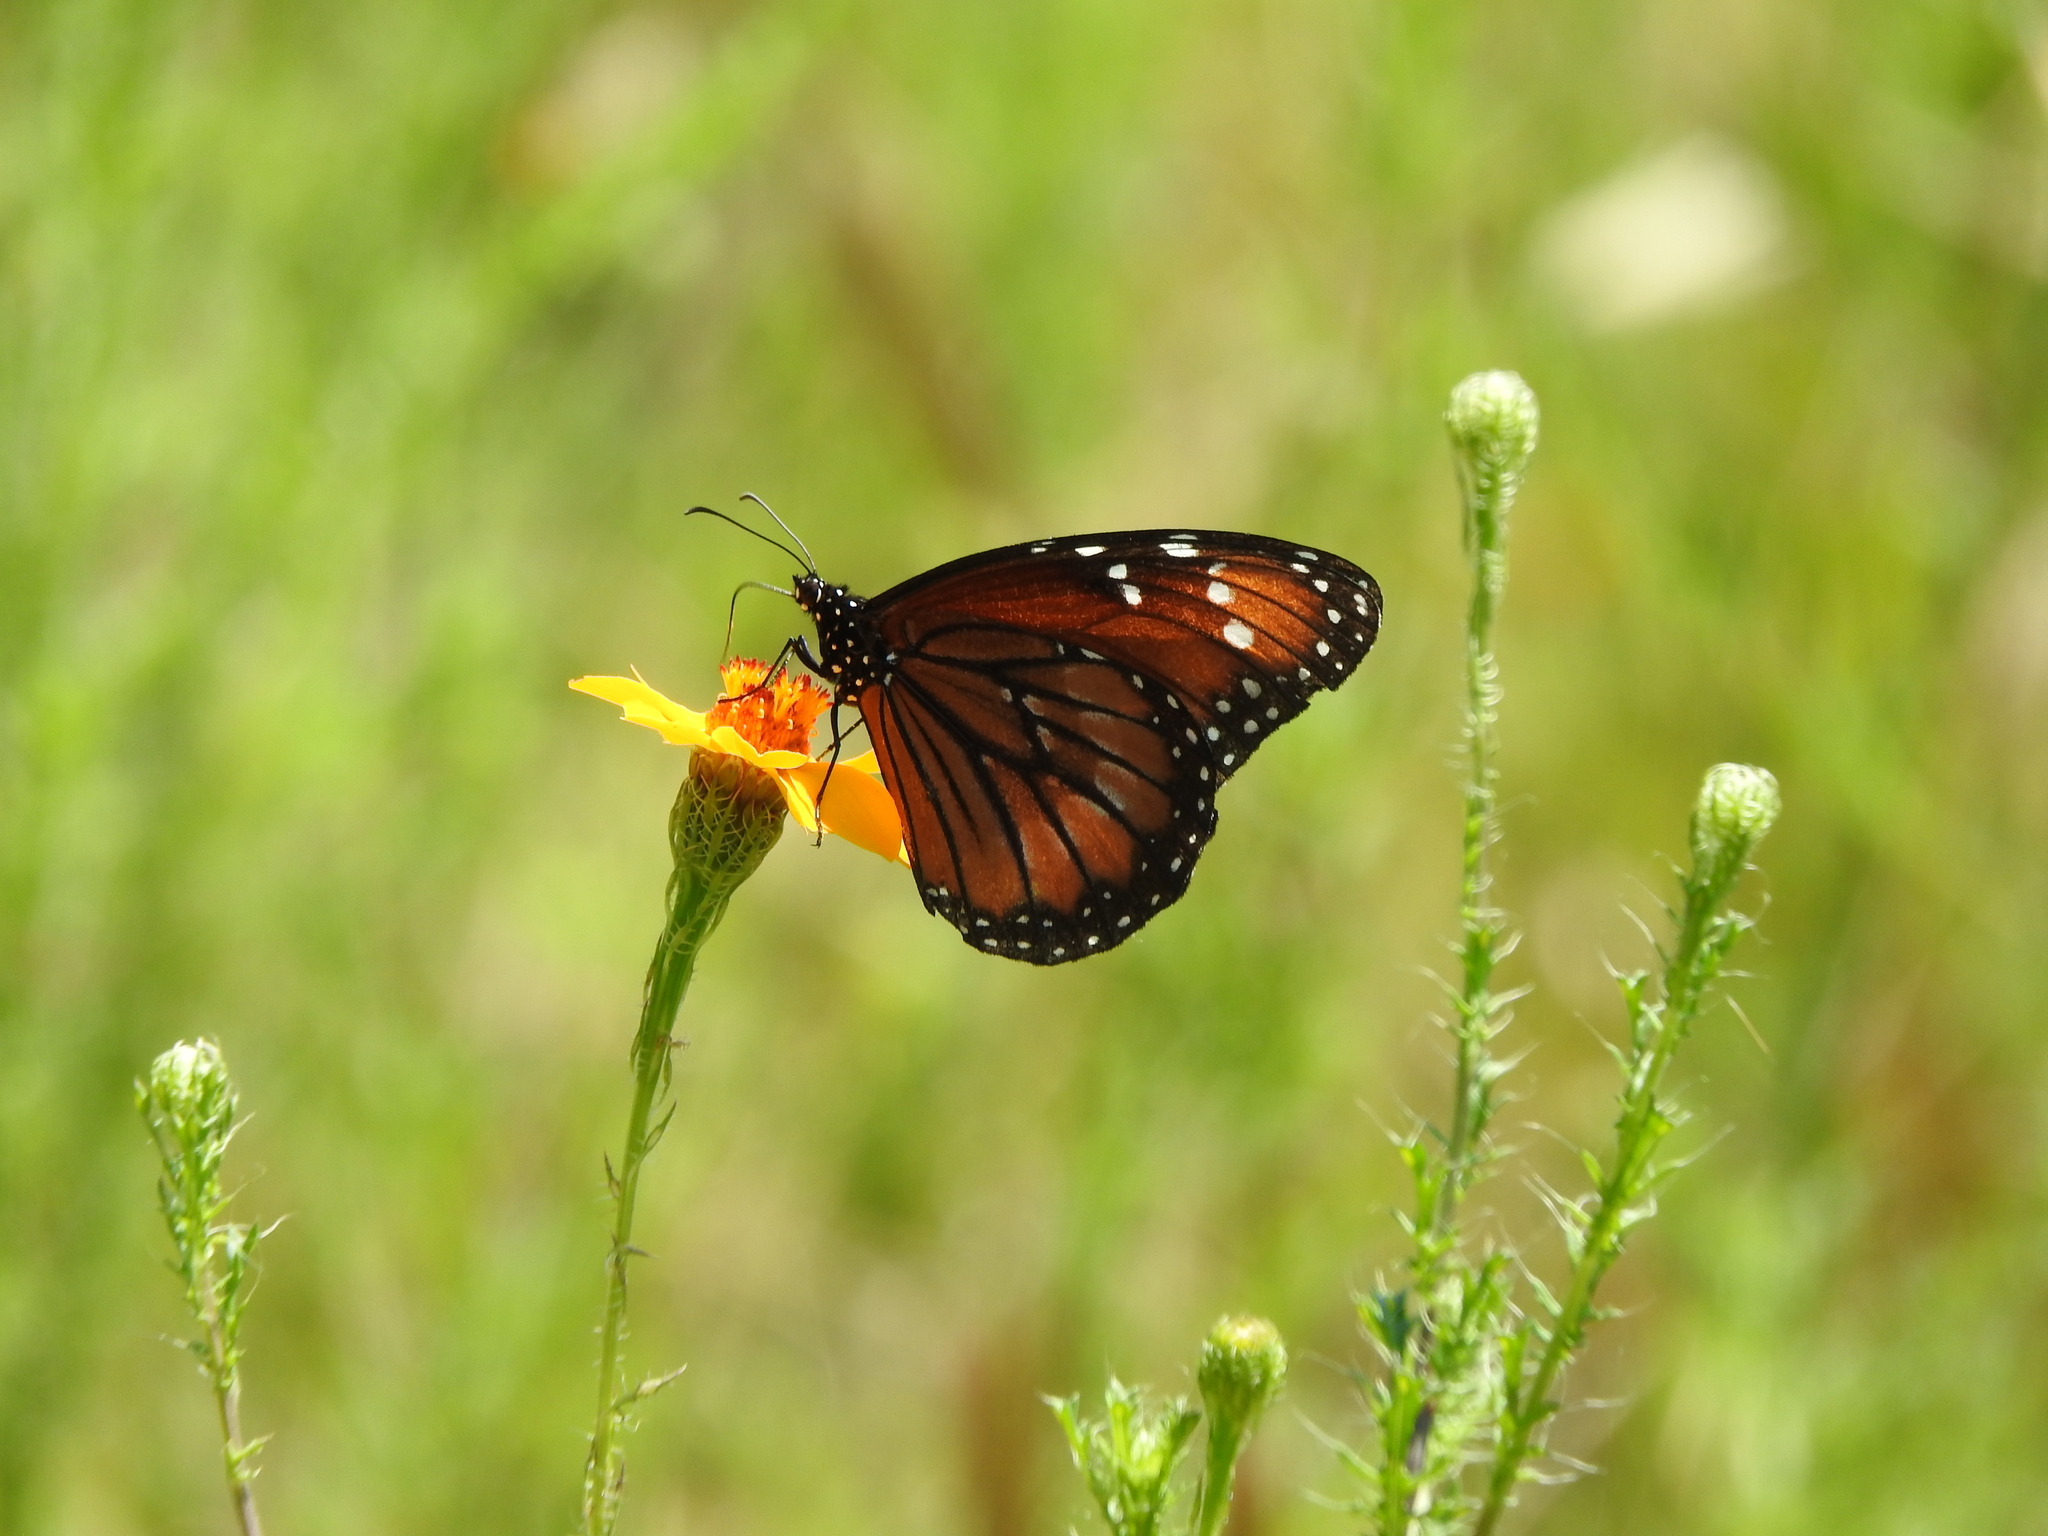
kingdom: Animalia
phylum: Arthropoda
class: Insecta
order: Lepidoptera
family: Nymphalidae
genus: Danaus
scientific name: Danaus eresimus
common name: Soldier
